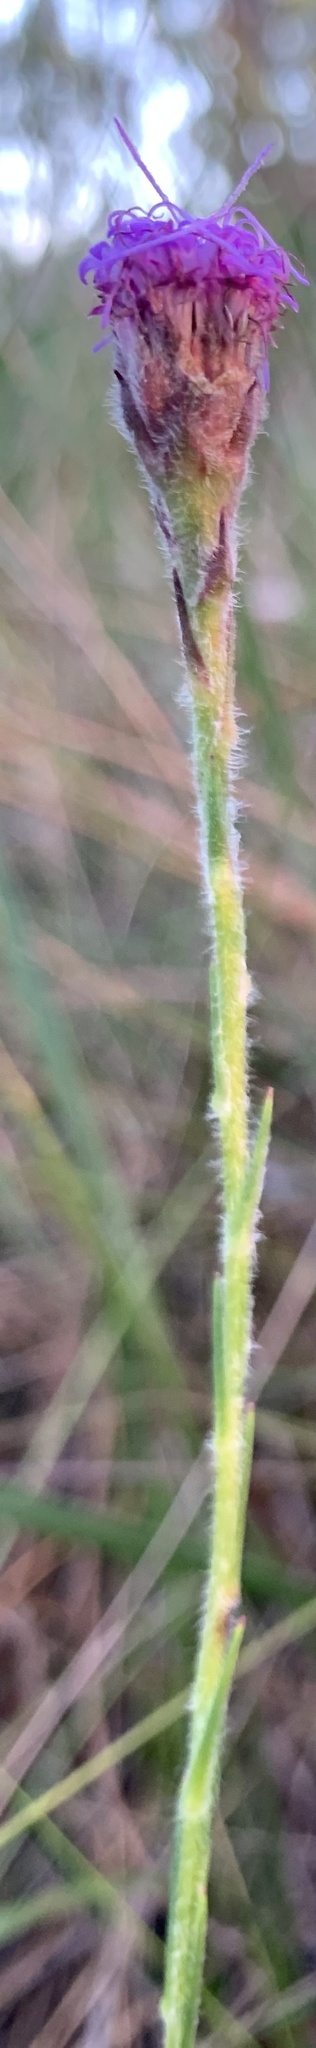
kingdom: Plantae
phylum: Tracheophyta
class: Magnoliopsida
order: Asterales
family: Asteraceae
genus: Carphephorus
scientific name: Carphephorus pseudoliatris
